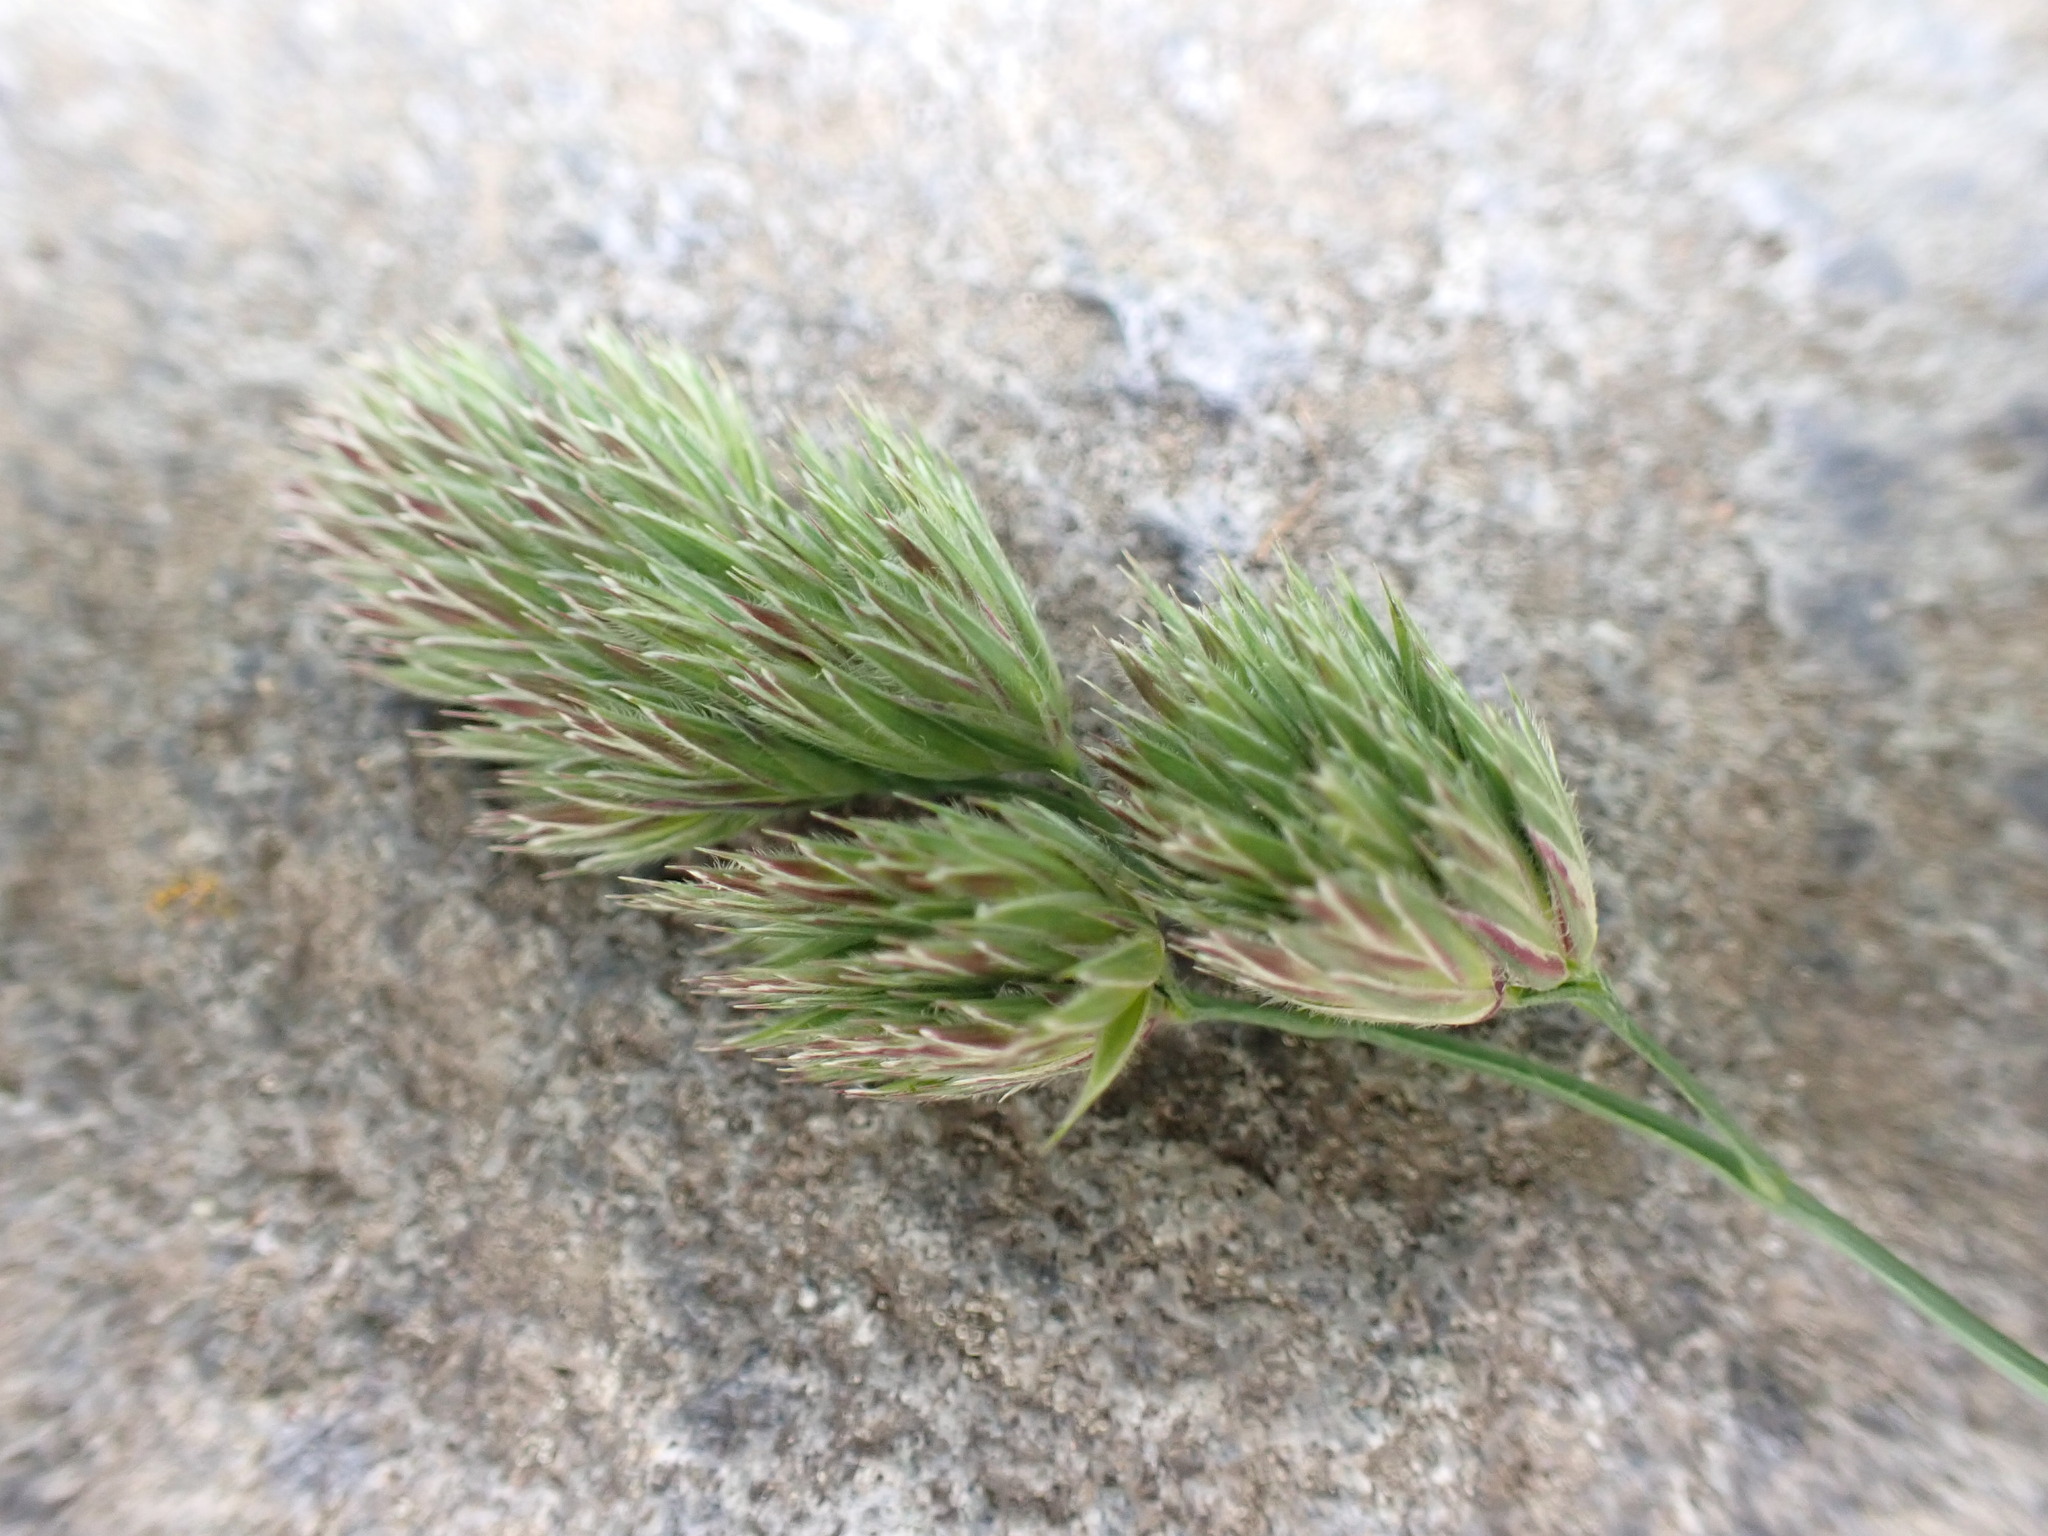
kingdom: Plantae
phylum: Tracheophyta
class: Liliopsida
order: Poales
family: Poaceae
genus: Dactylis
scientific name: Dactylis glomerata
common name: Orchardgrass
